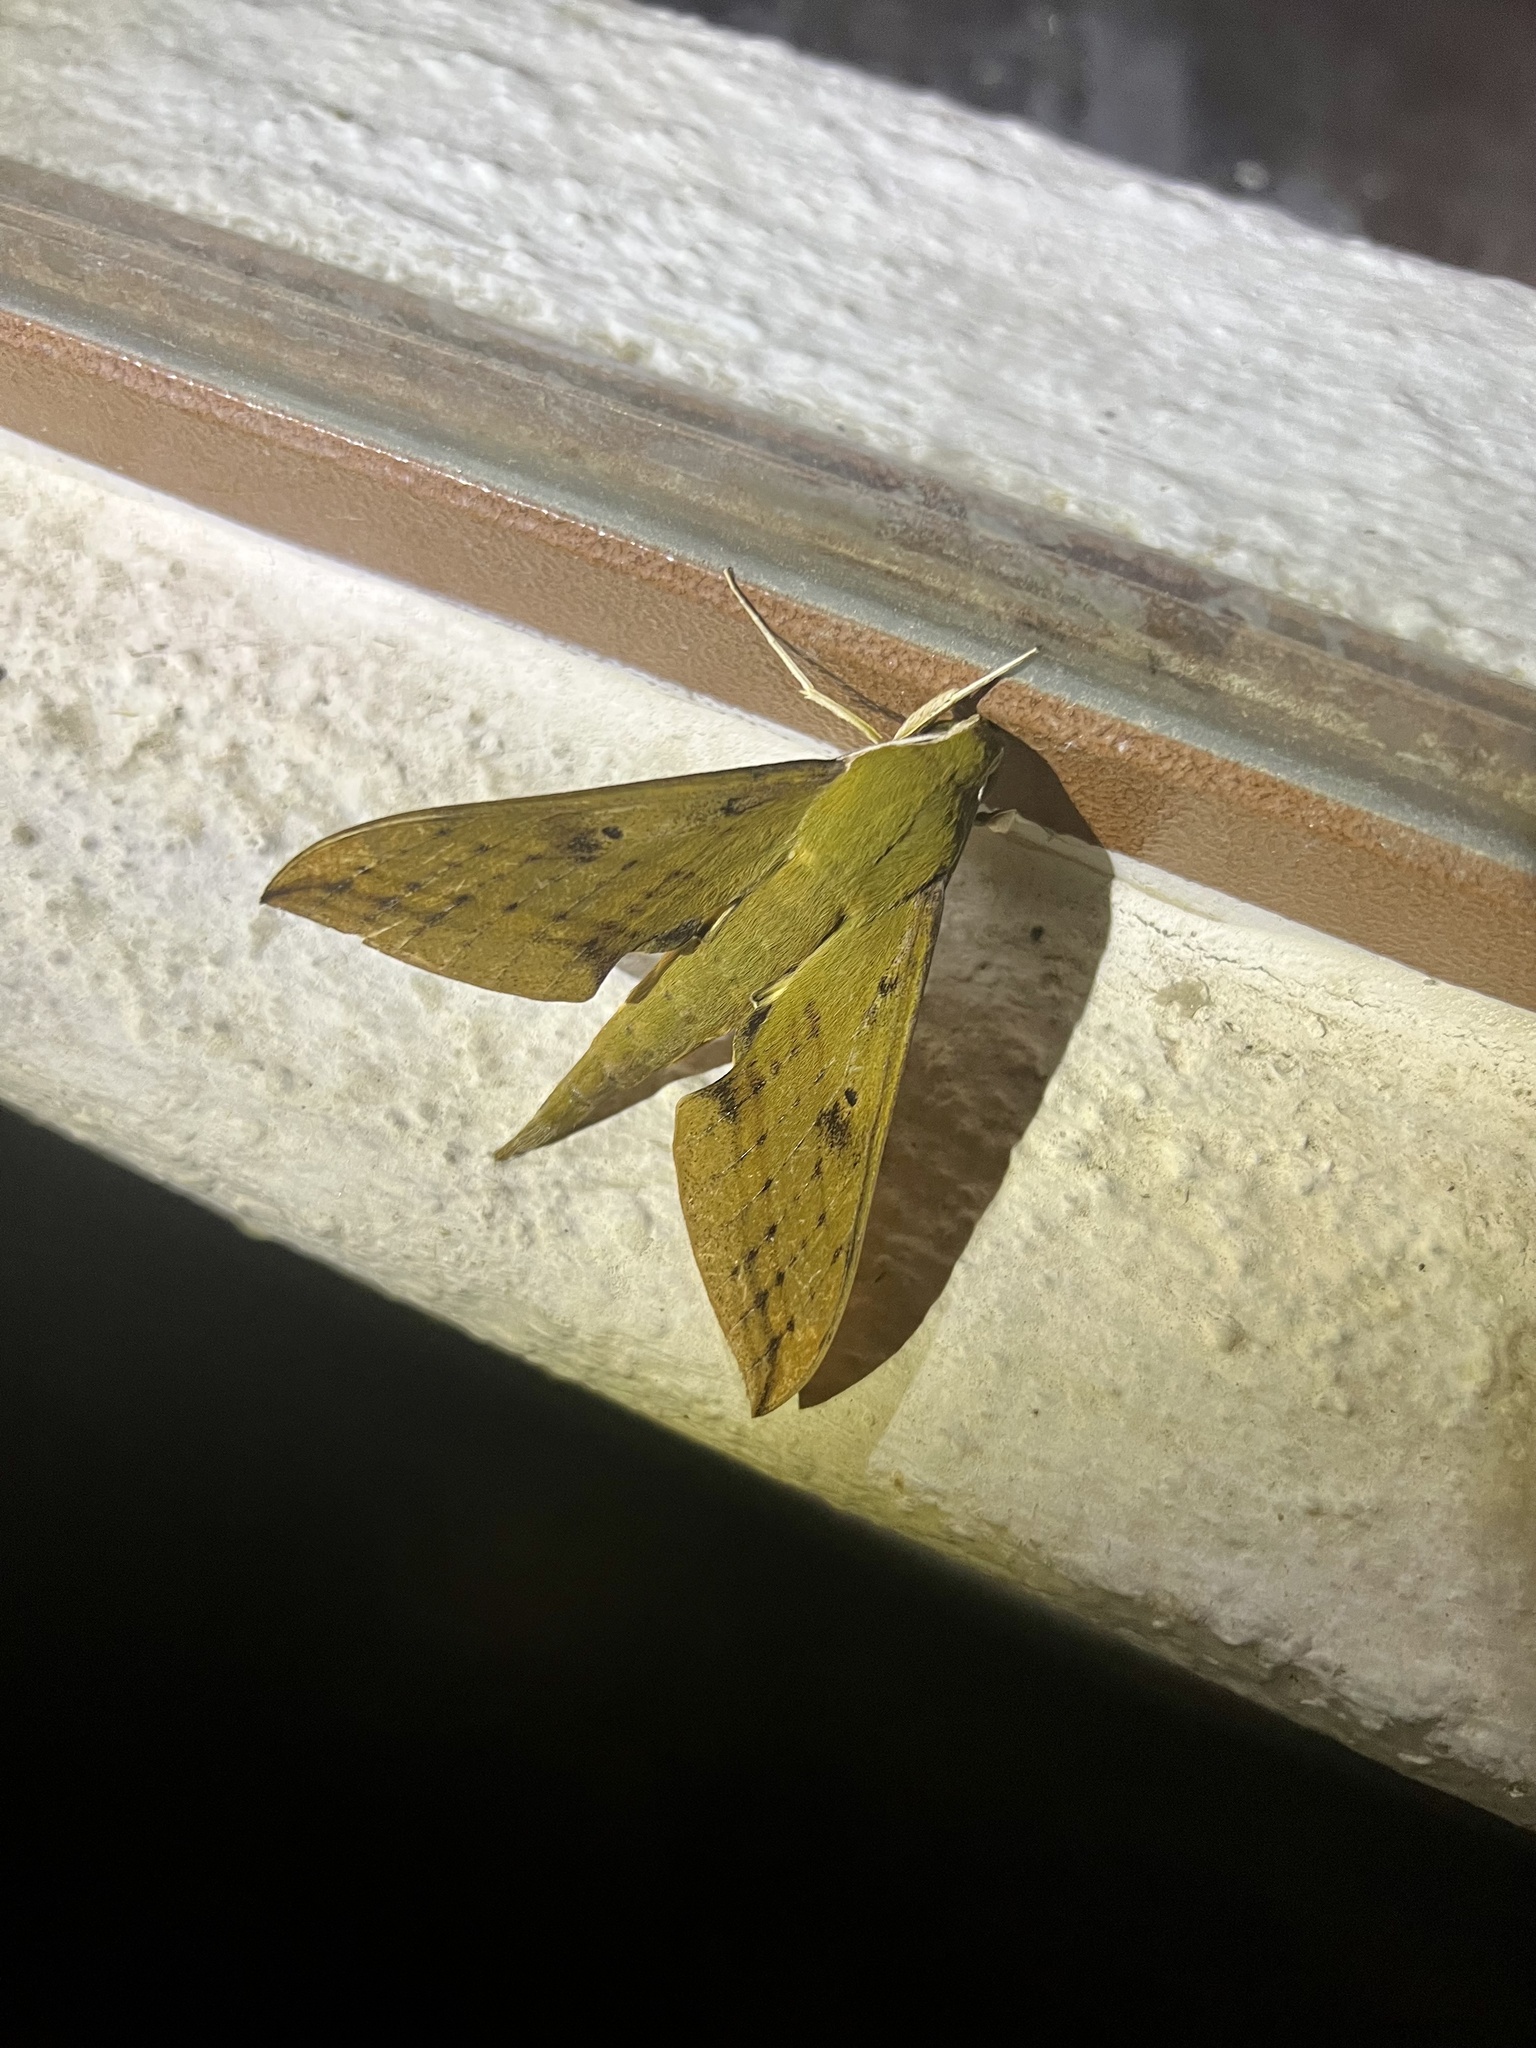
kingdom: Animalia
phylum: Arthropoda
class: Insecta
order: Lepidoptera
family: Sphingidae
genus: Xylophanes
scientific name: Xylophanes crotonis
